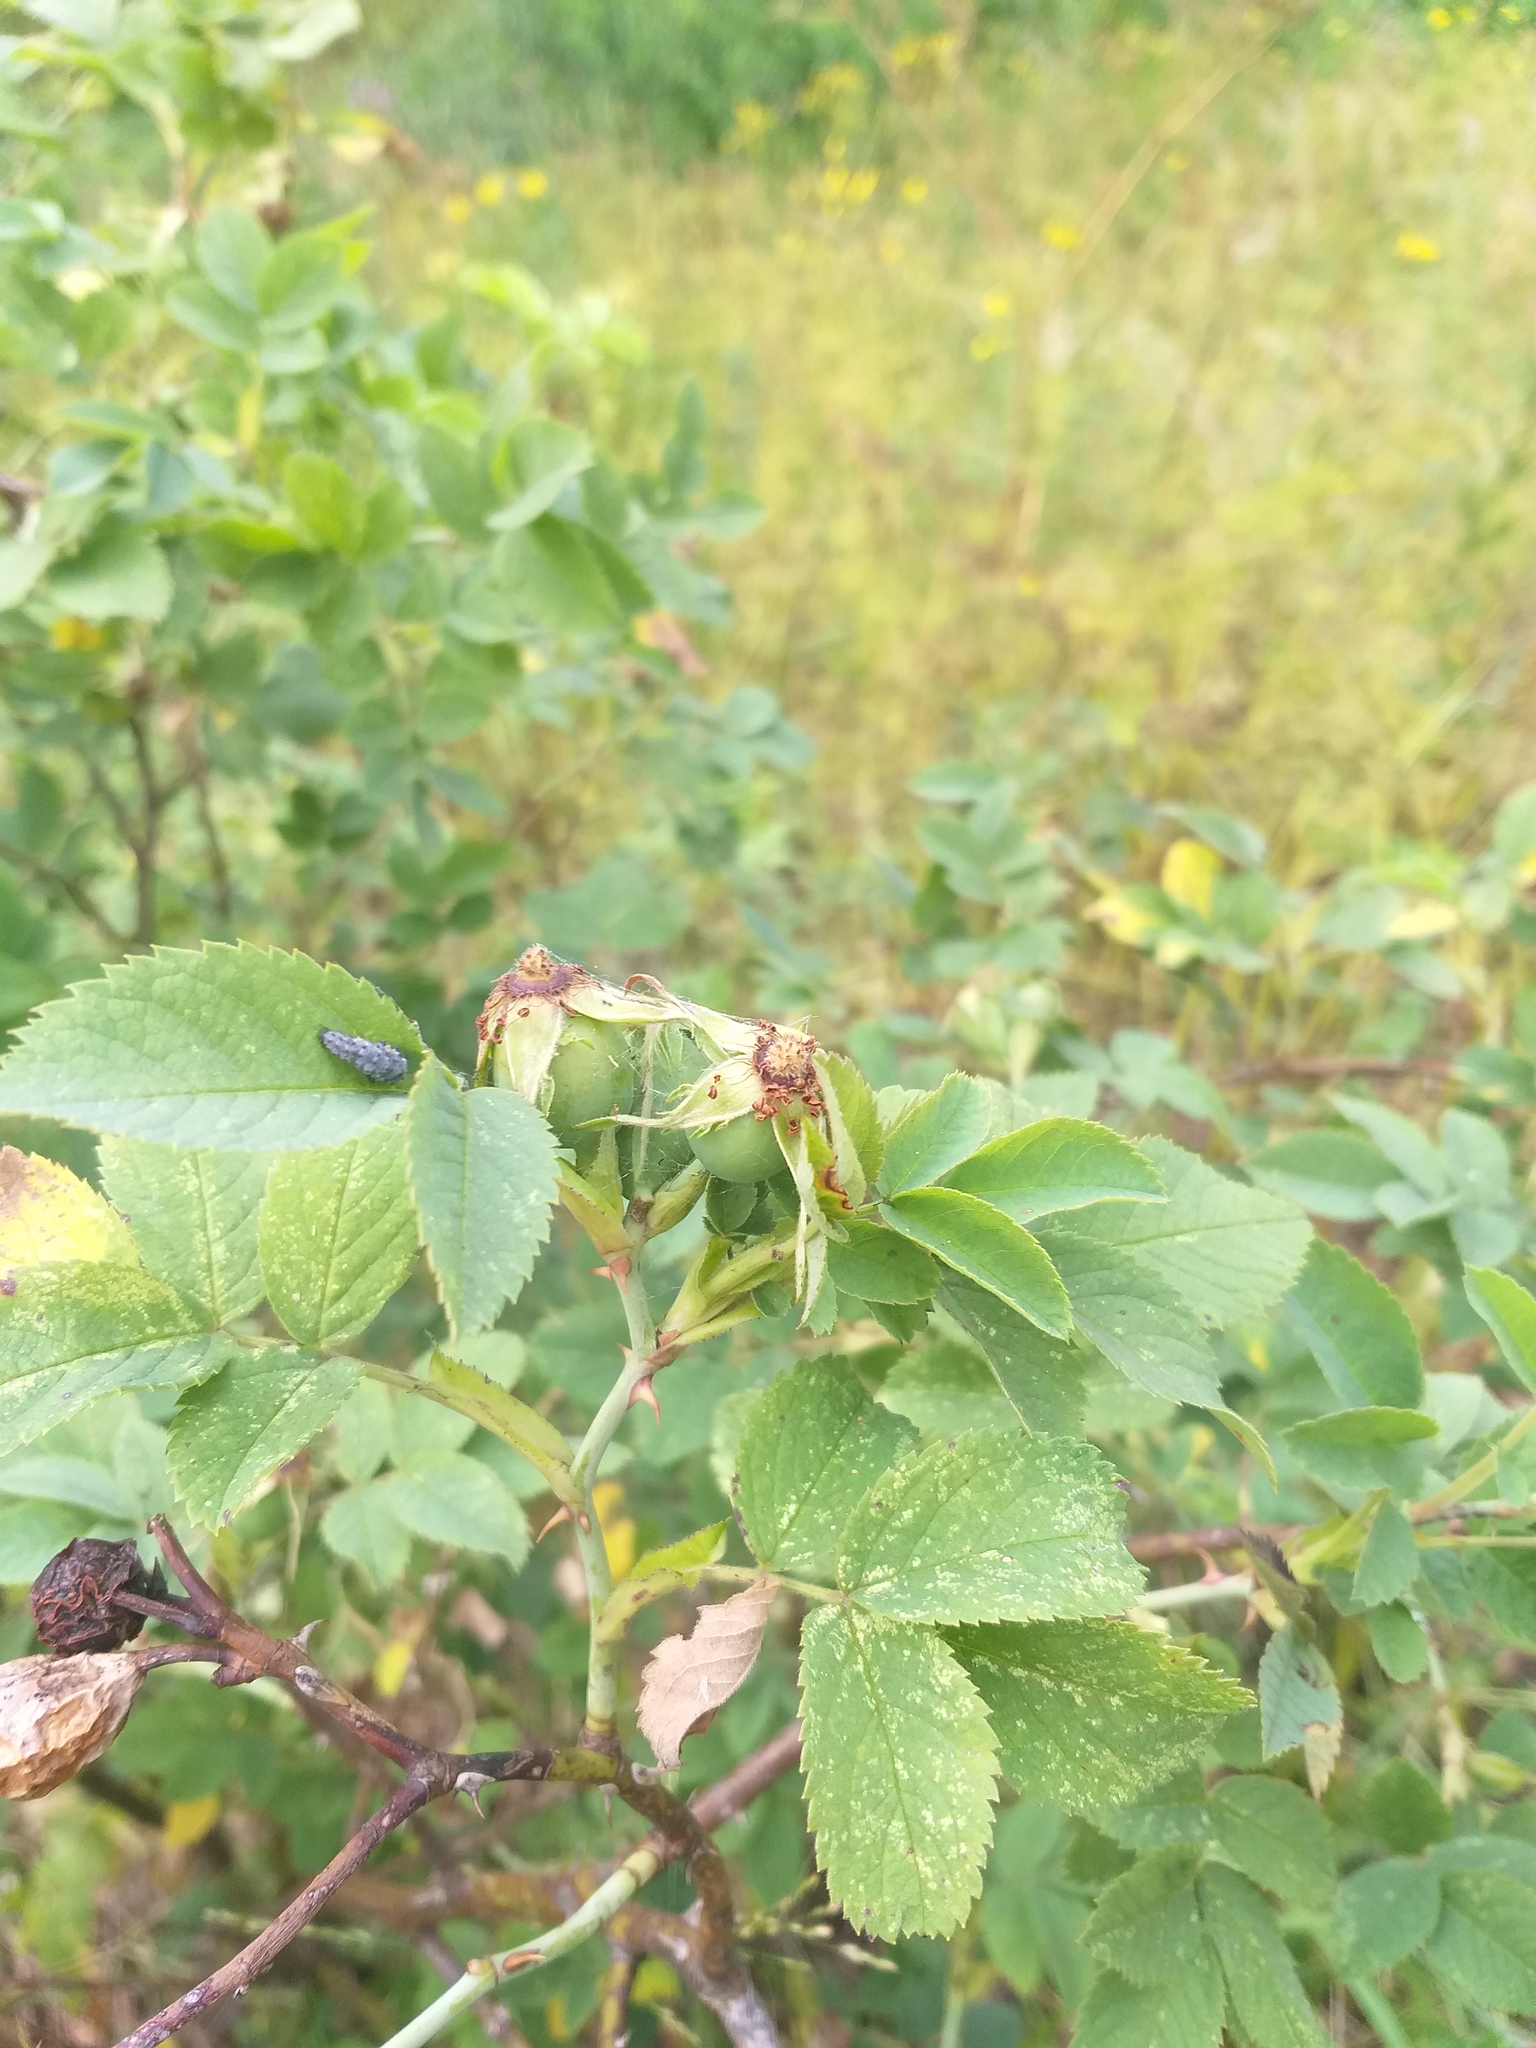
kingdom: Plantae
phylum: Tracheophyta
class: Magnoliopsida
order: Rosales
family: Rosaceae
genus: Rosa
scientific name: Rosa corymbifera
